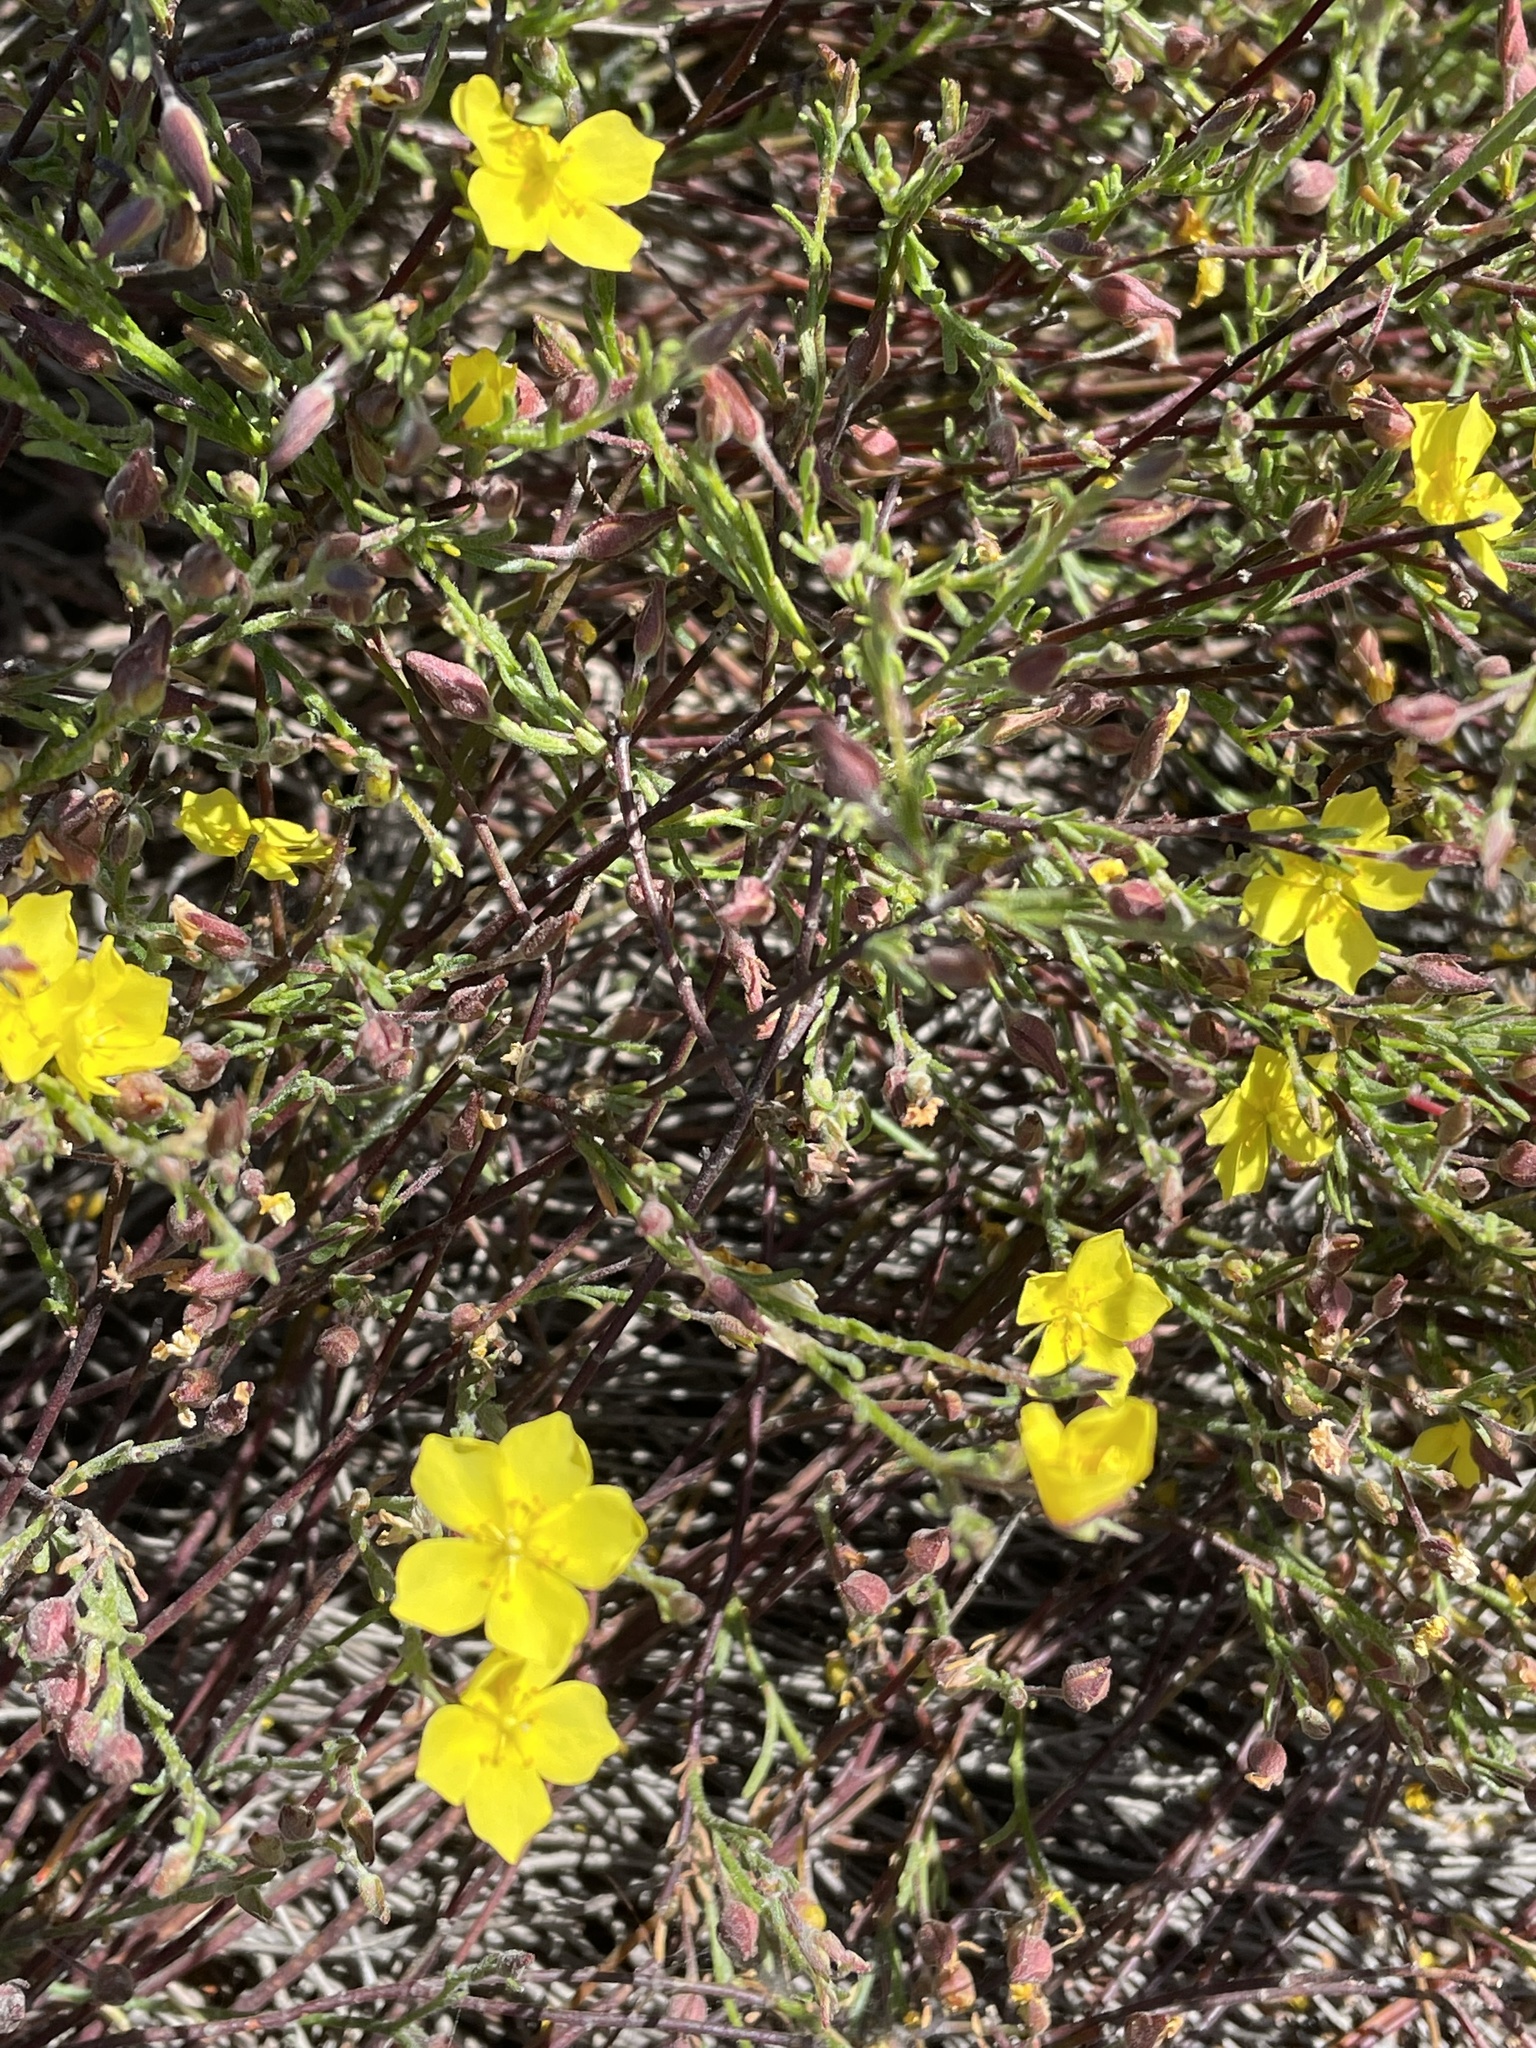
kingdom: Plantae
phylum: Tracheophyta
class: Magnoliopsida
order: Malvales
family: Cistaceae
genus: Crocanthemum
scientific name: Crocanthemum scoparium
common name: Broom-rose
